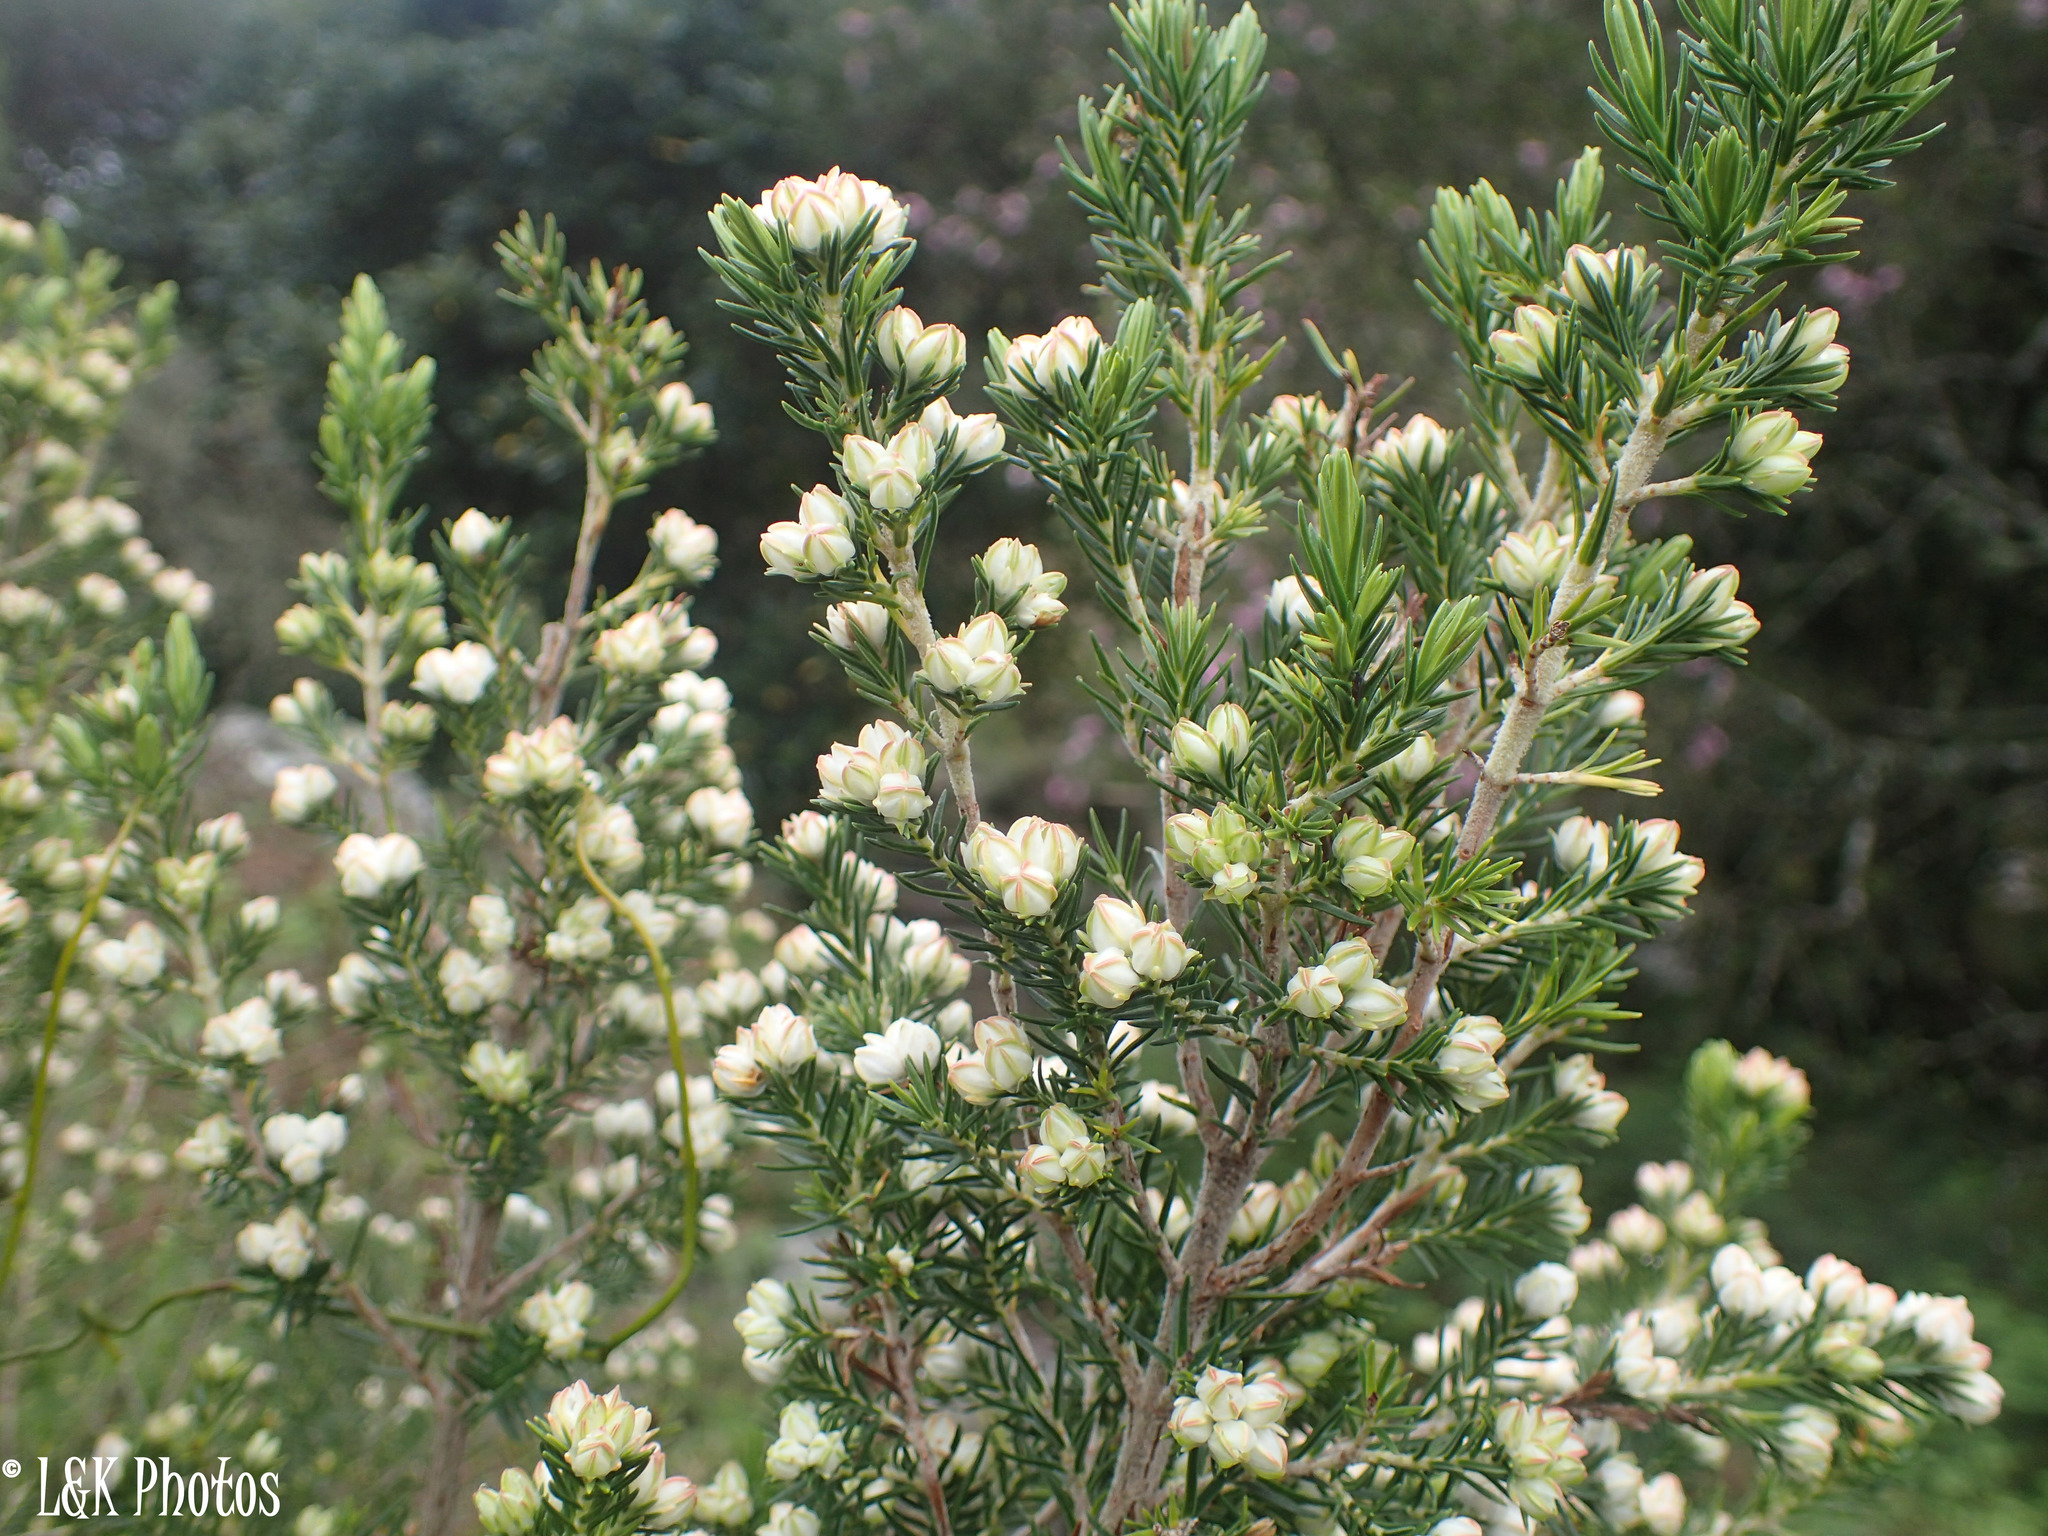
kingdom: Plantae
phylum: Tracheophyta
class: Magnoliopsida
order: Ericales
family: Ericaceae
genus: Erica
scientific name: Erica triflora
